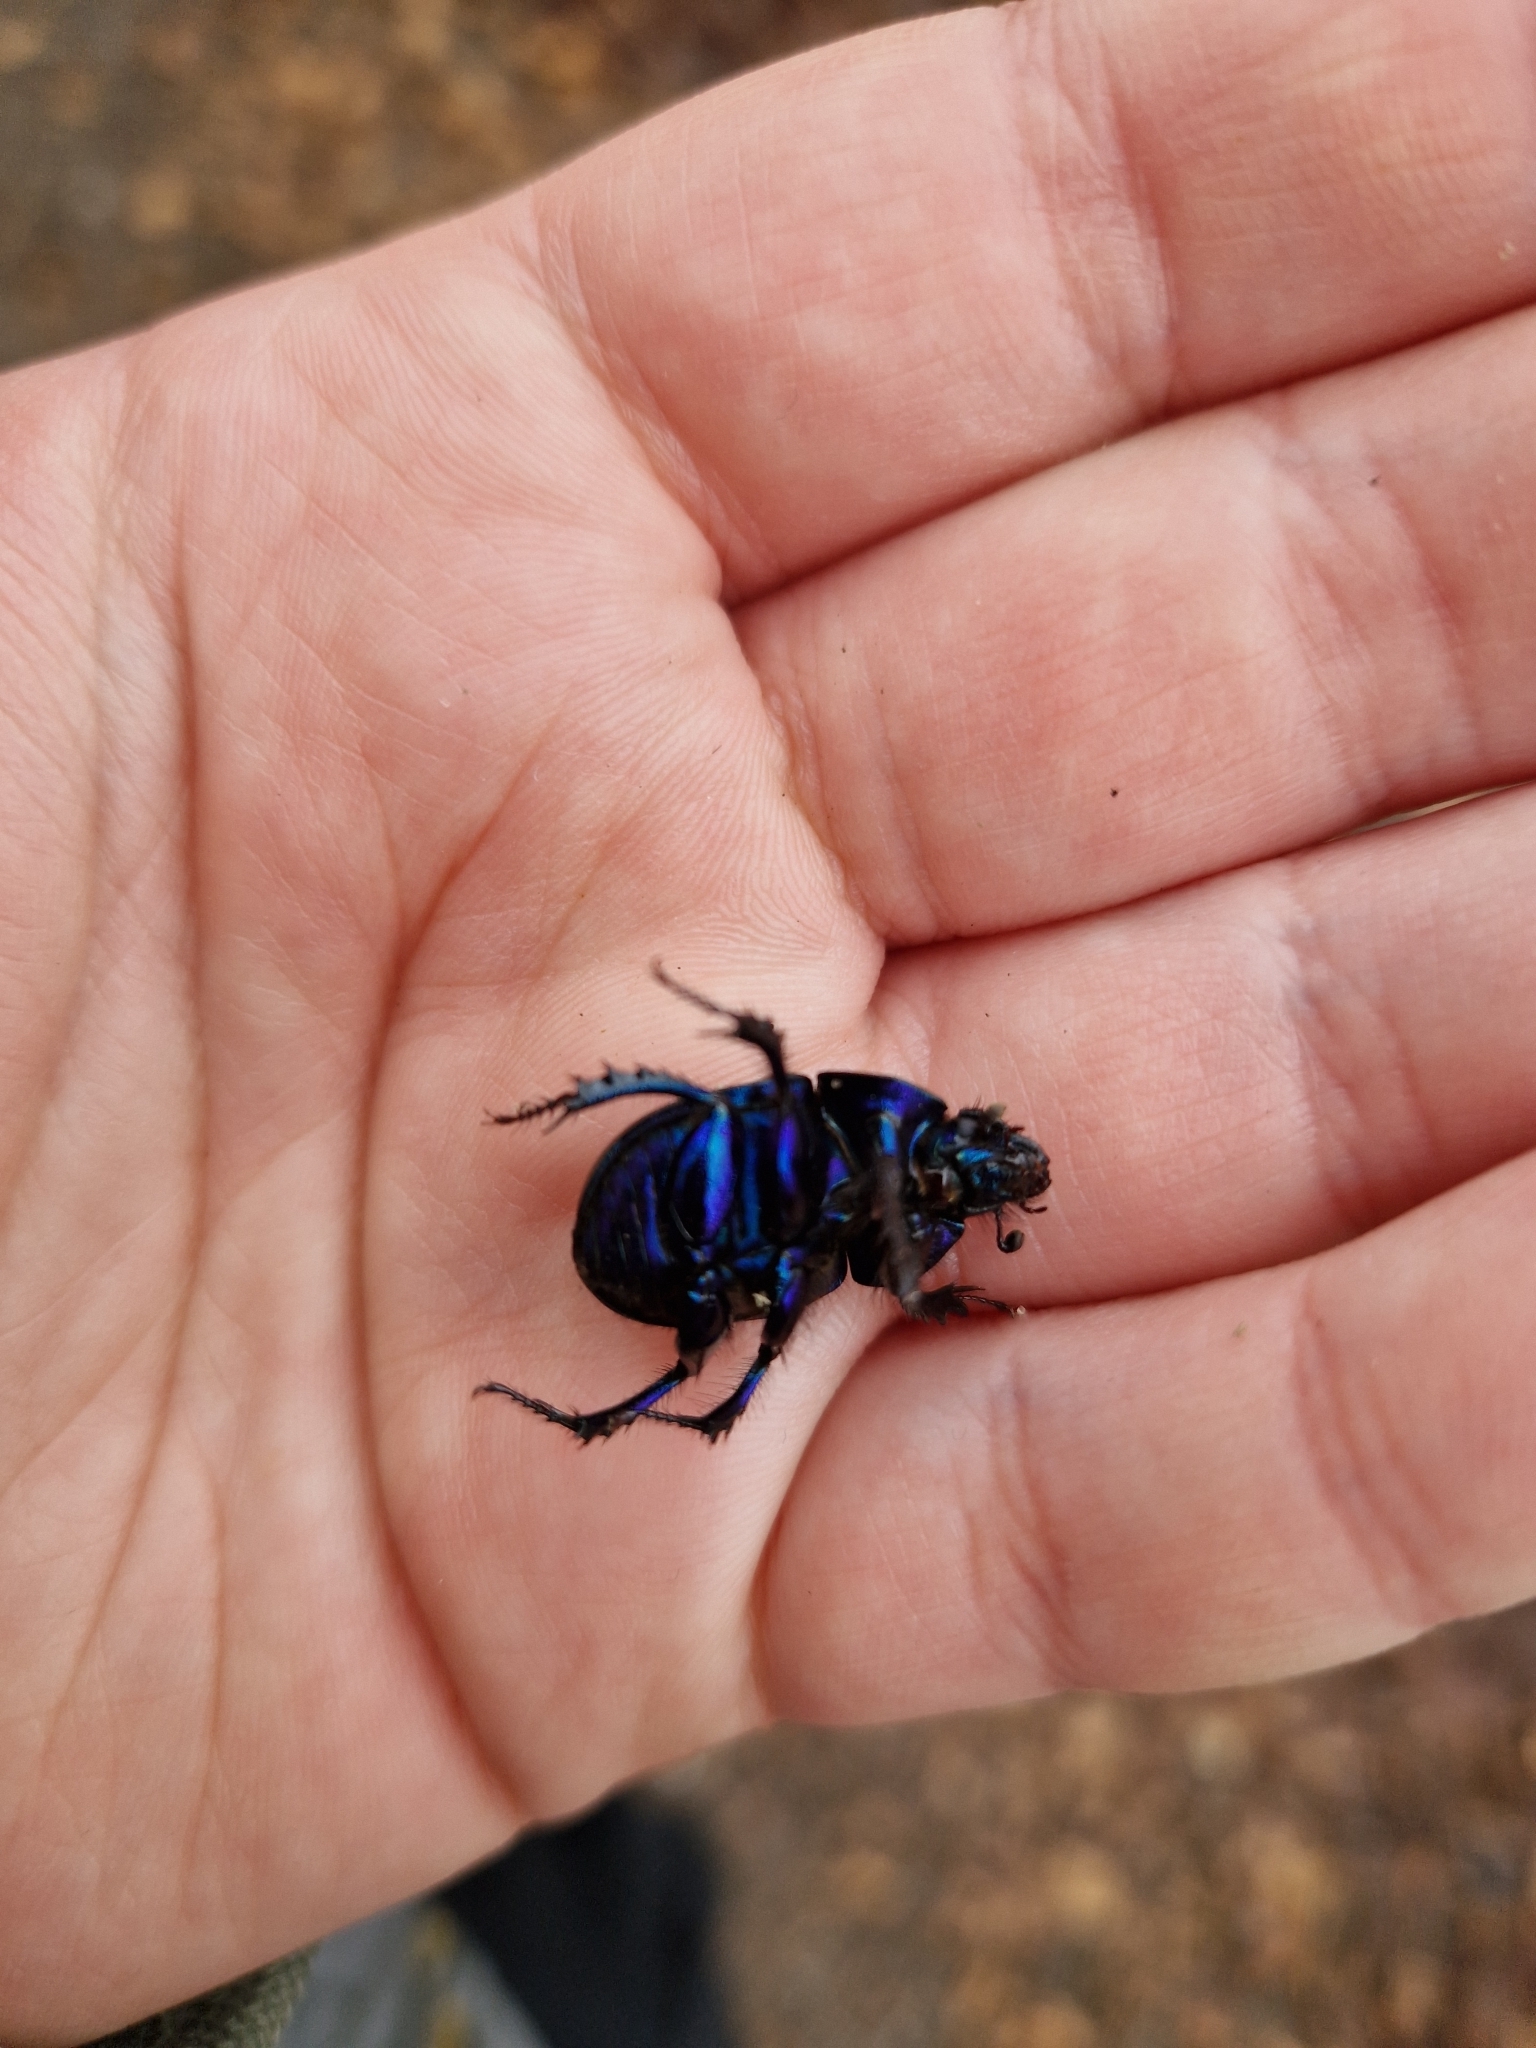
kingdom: Animalia
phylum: Arthropoda
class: Insecta
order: Coleoptera
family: Geotrupidae
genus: Anoplotrupes
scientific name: Anoplotrupes stercorosus
